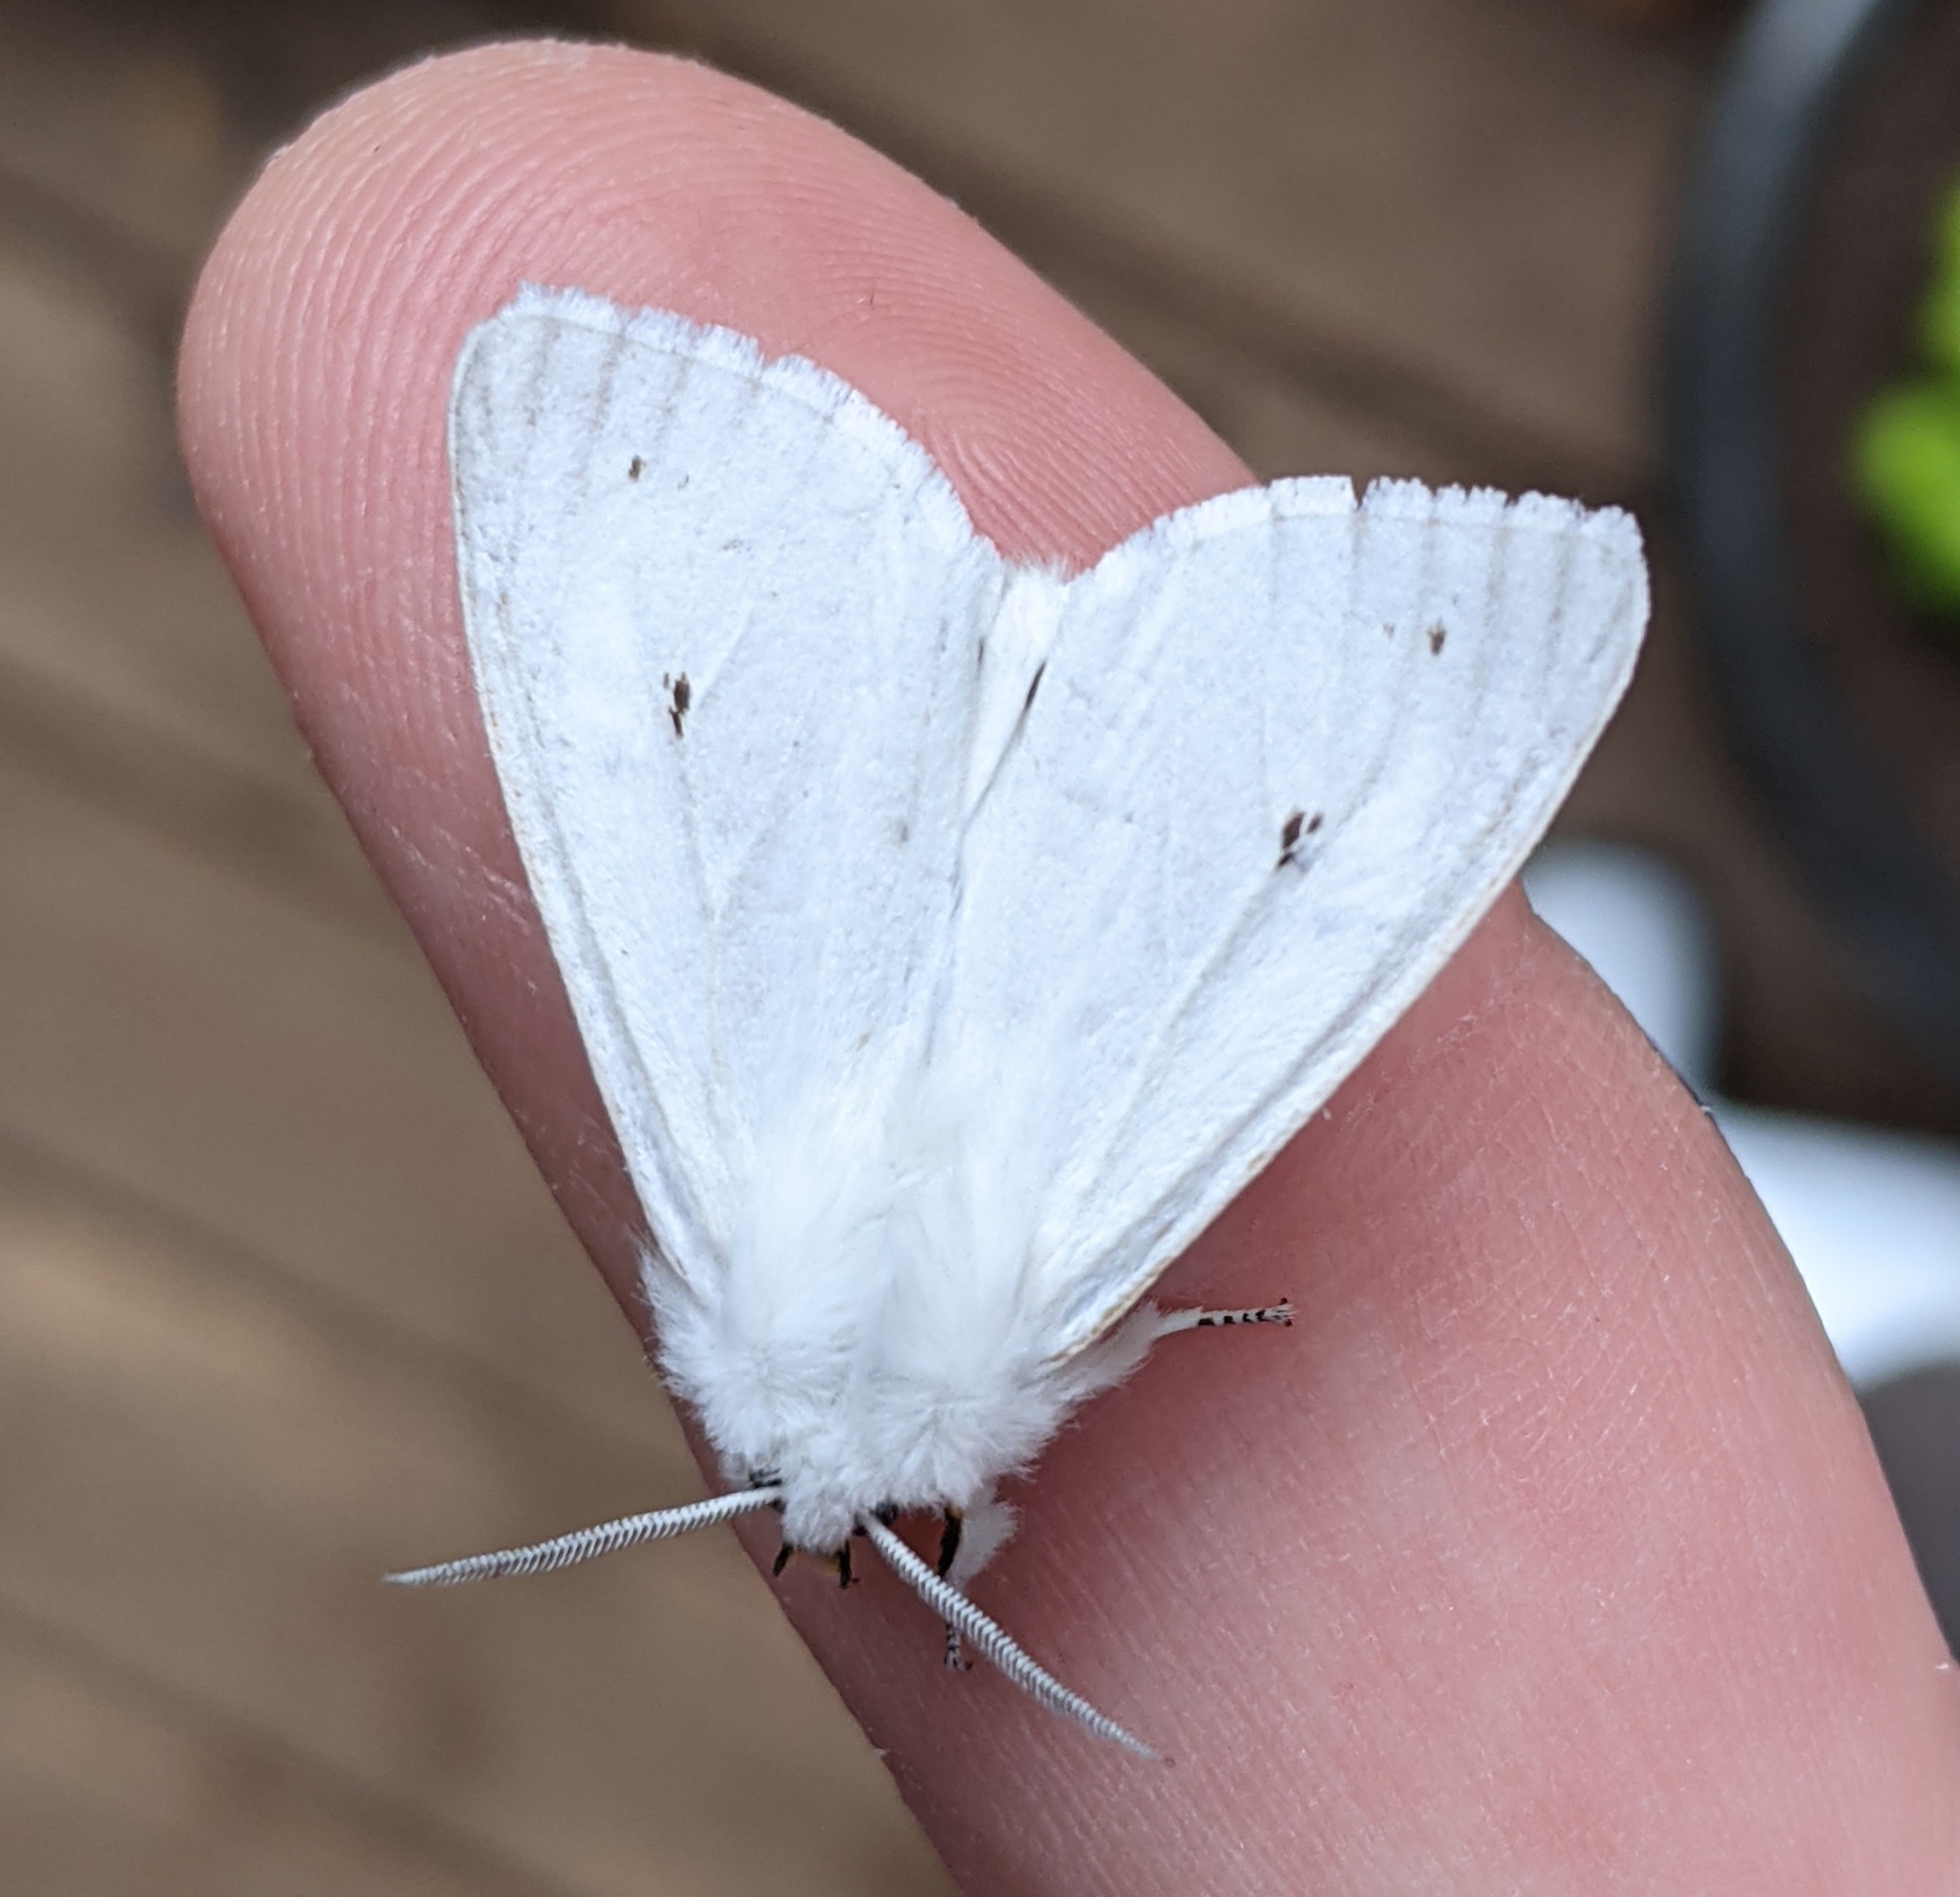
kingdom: Animalia
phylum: Arthropoda
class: Insecta
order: Lepidoptera
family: Erebidae
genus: Spilosoma
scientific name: Spilosoma virginica
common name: Virginia tiger moth
